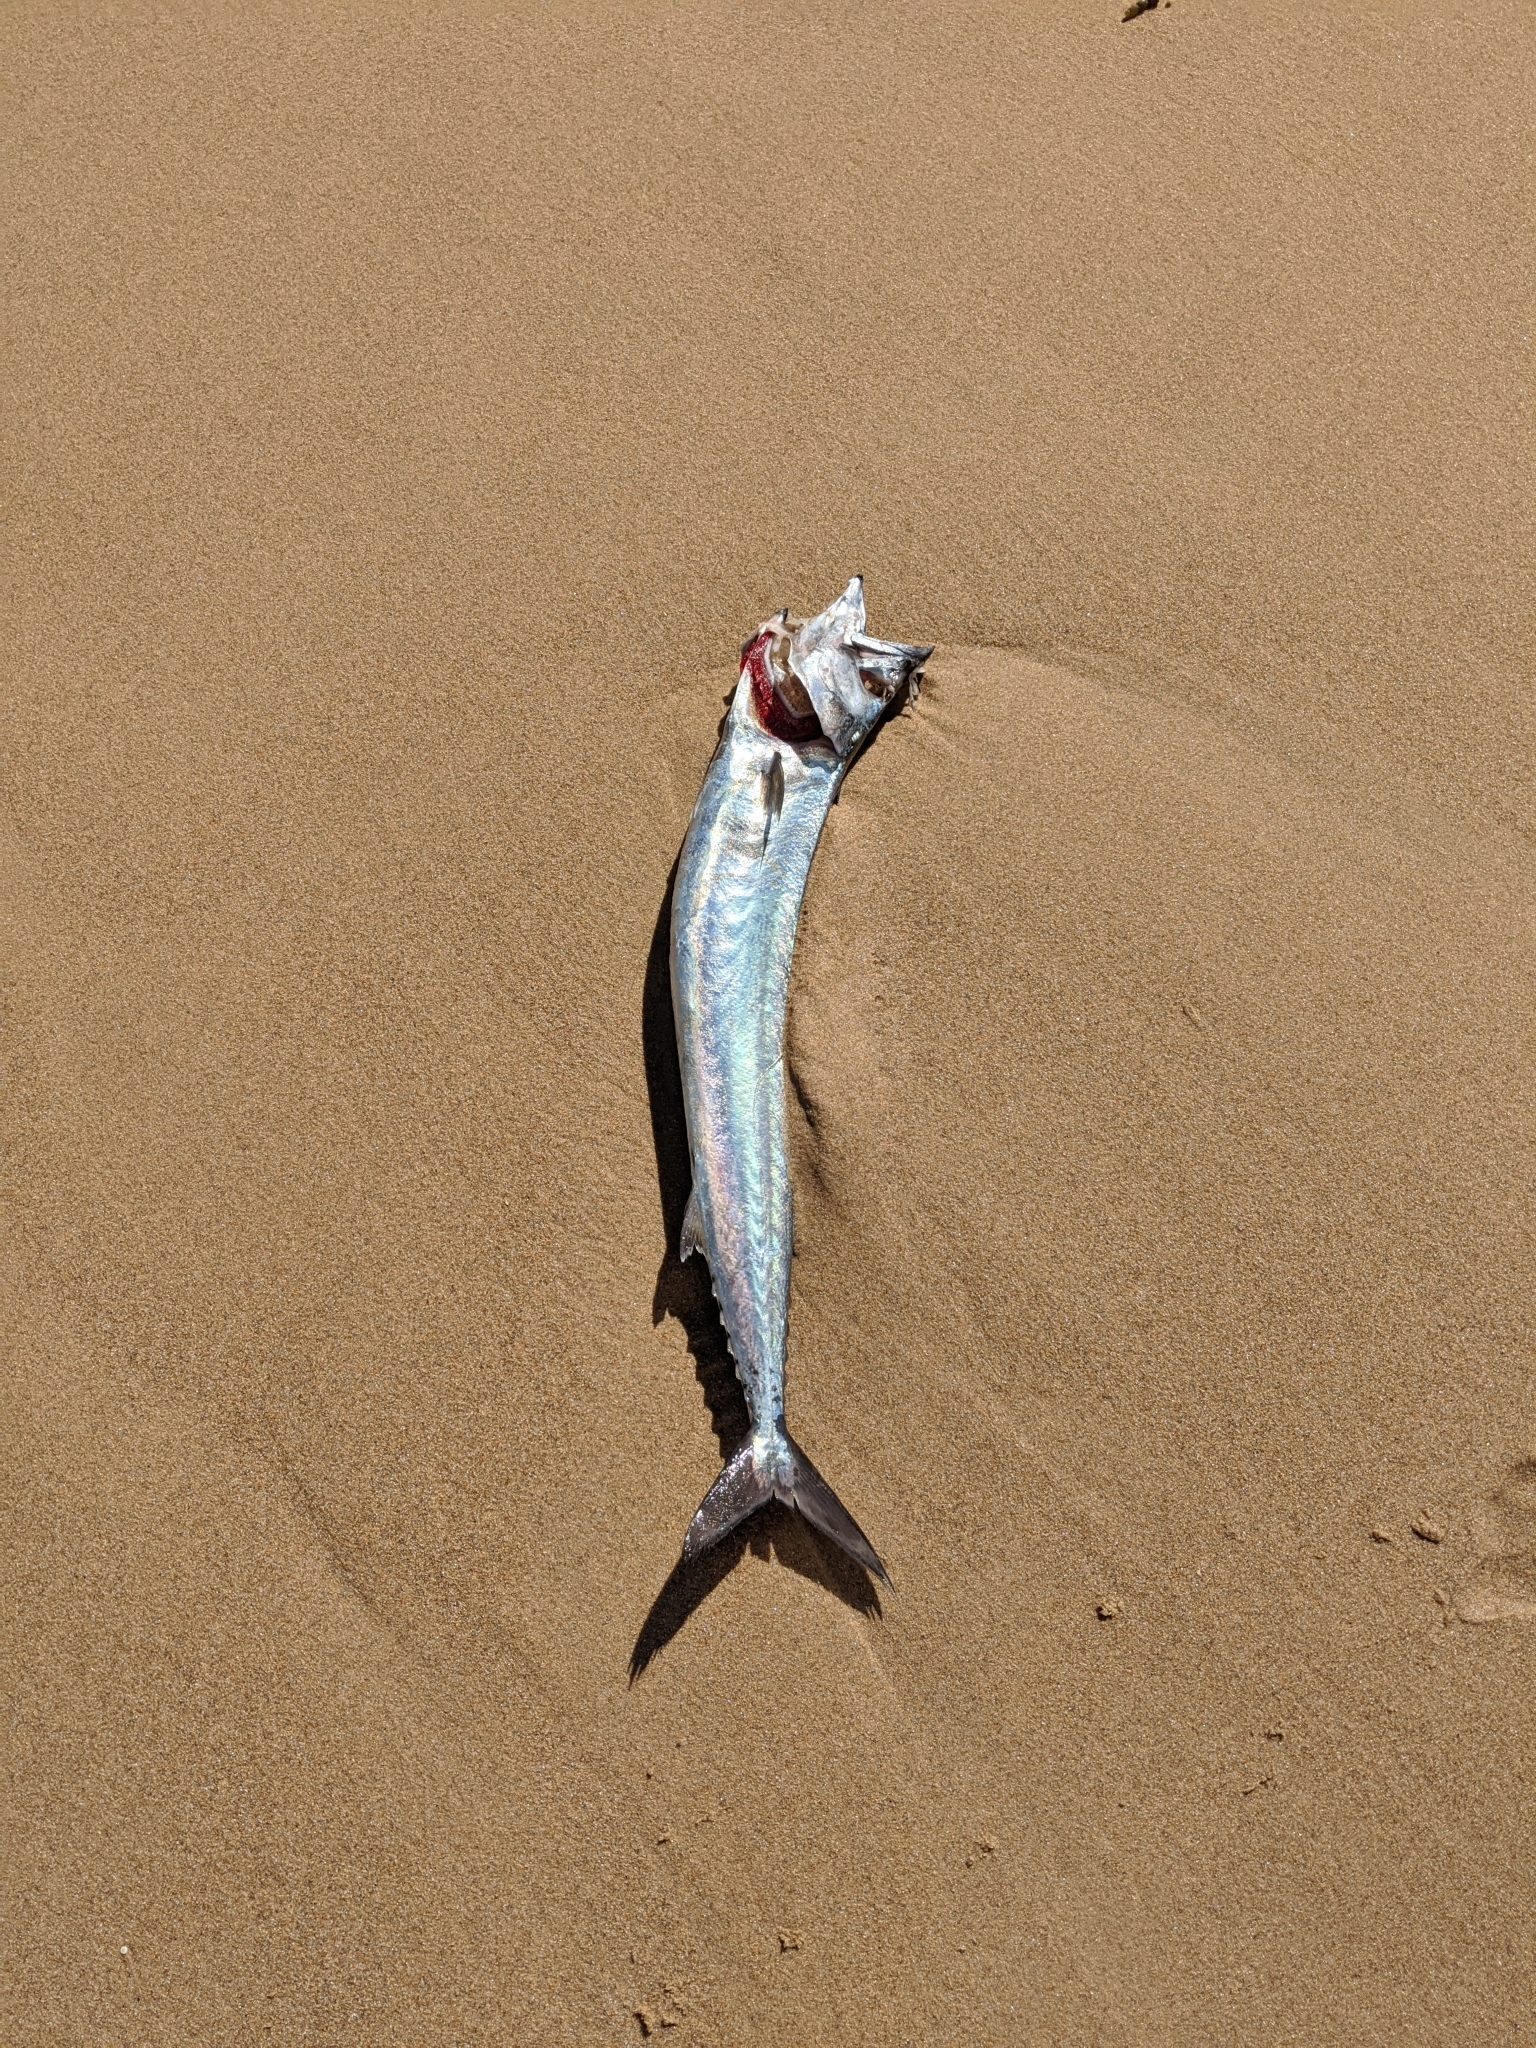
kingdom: Animalia
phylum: Chordata
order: Perciformes
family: Gempylidae
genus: Thyrsites
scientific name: Thyrsites atun
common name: Snoek
